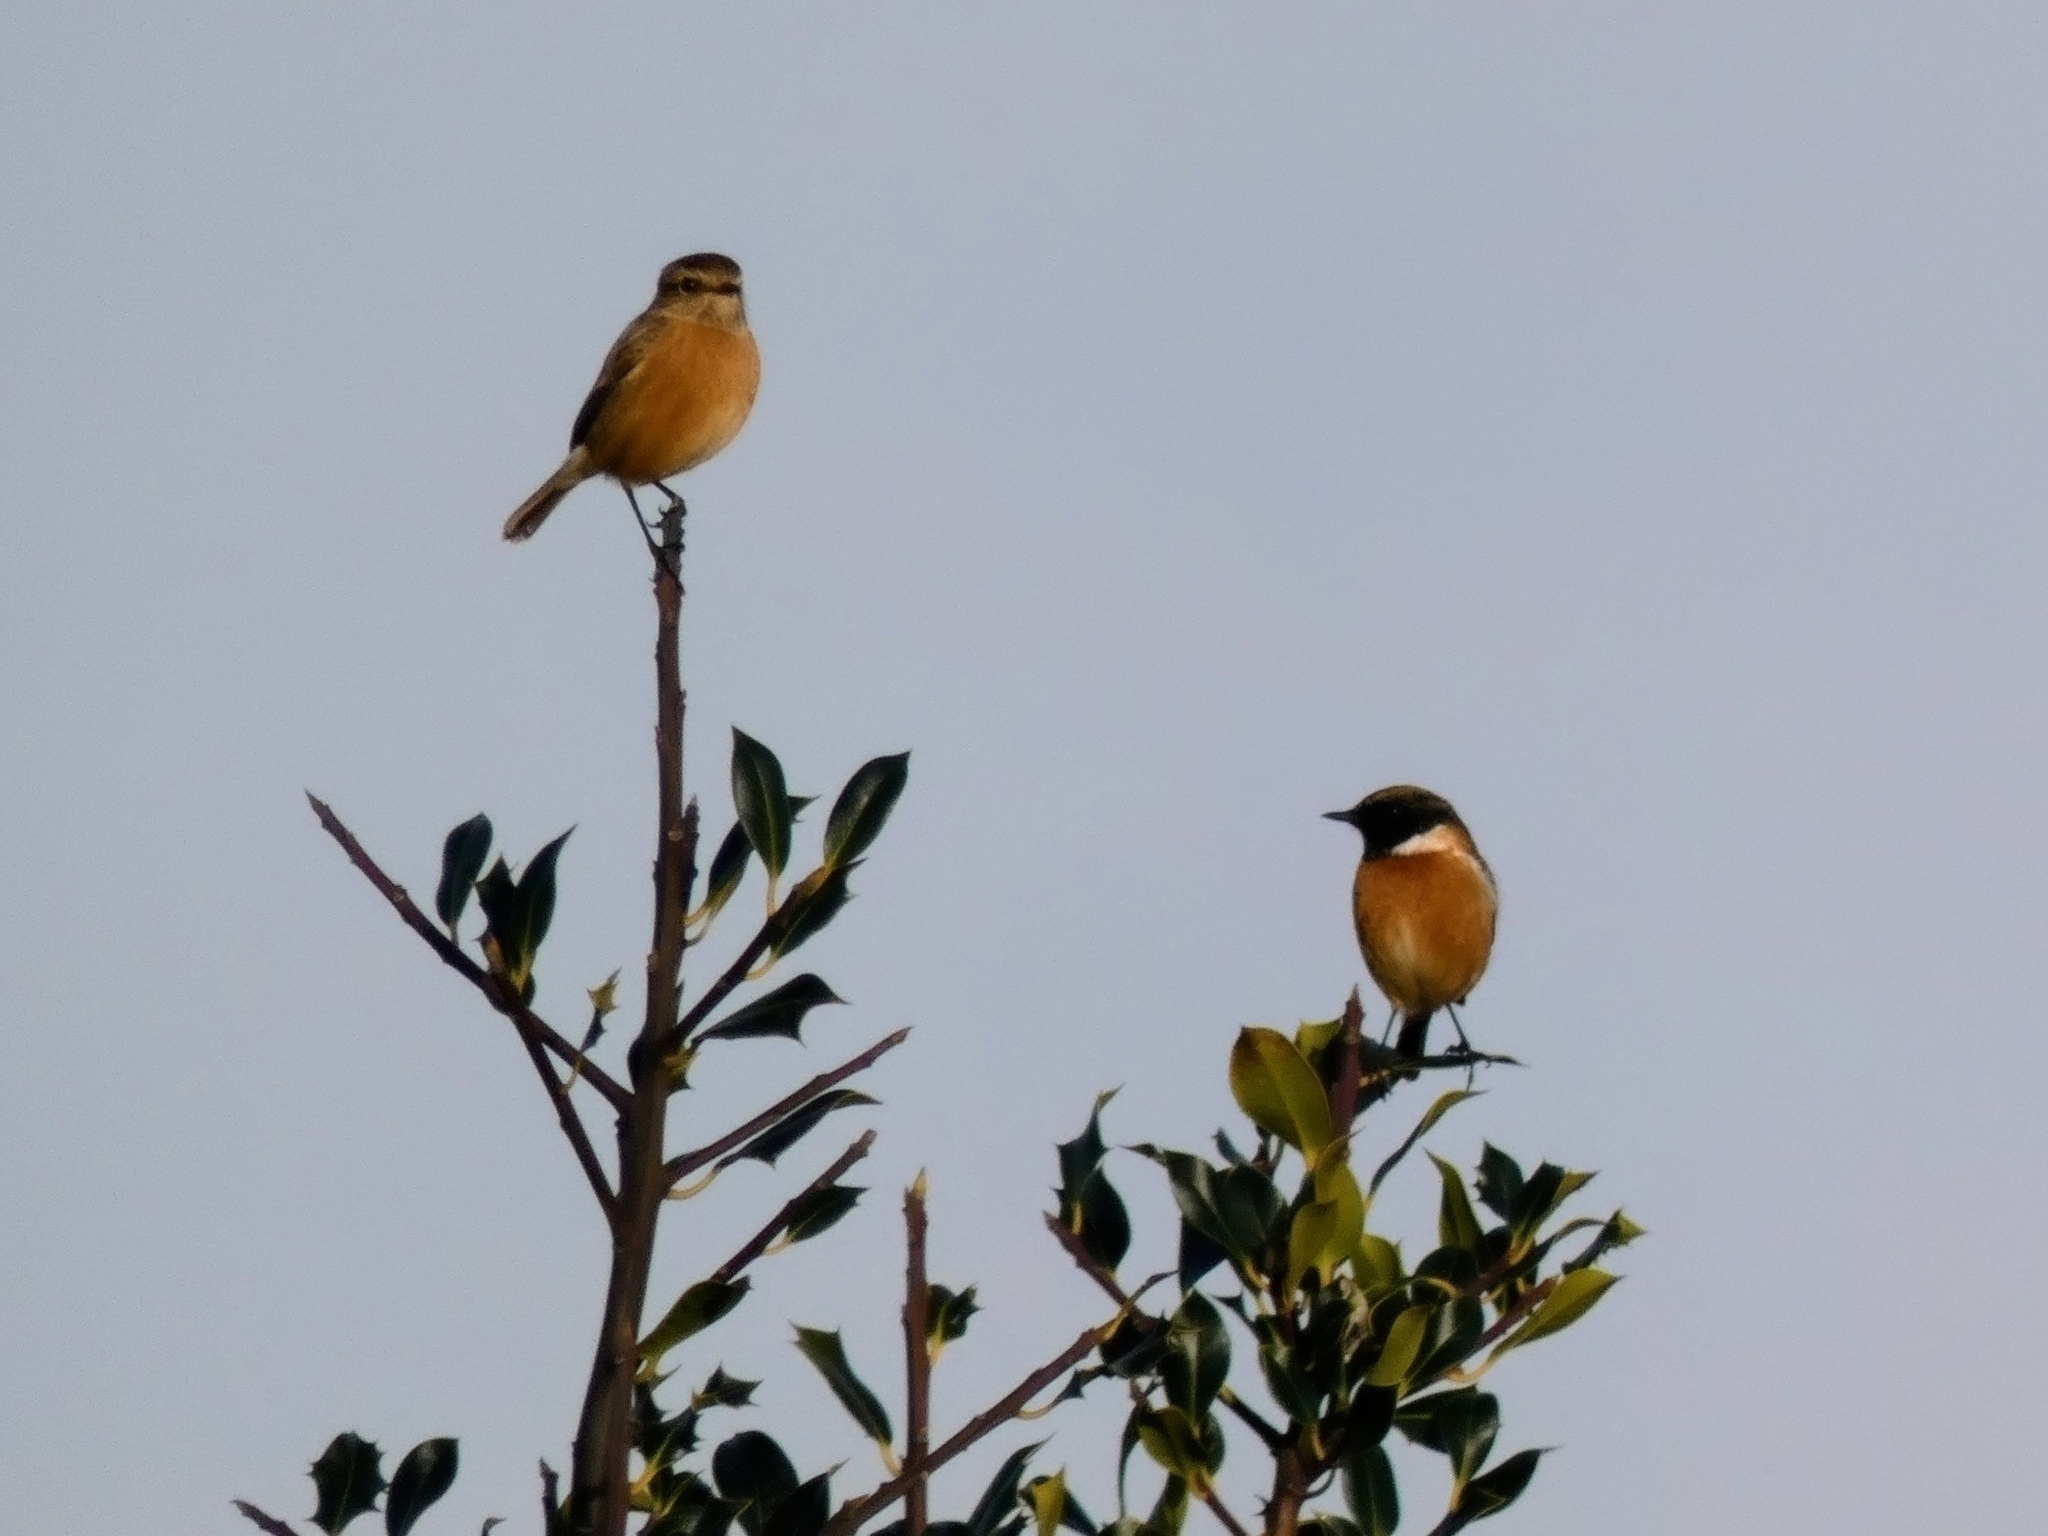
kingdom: Animalia
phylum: Chordata
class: Aves
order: Passeriformes
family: Muscicapidae
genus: Saxicola
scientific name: Saxicola rubicola
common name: European stonechat
